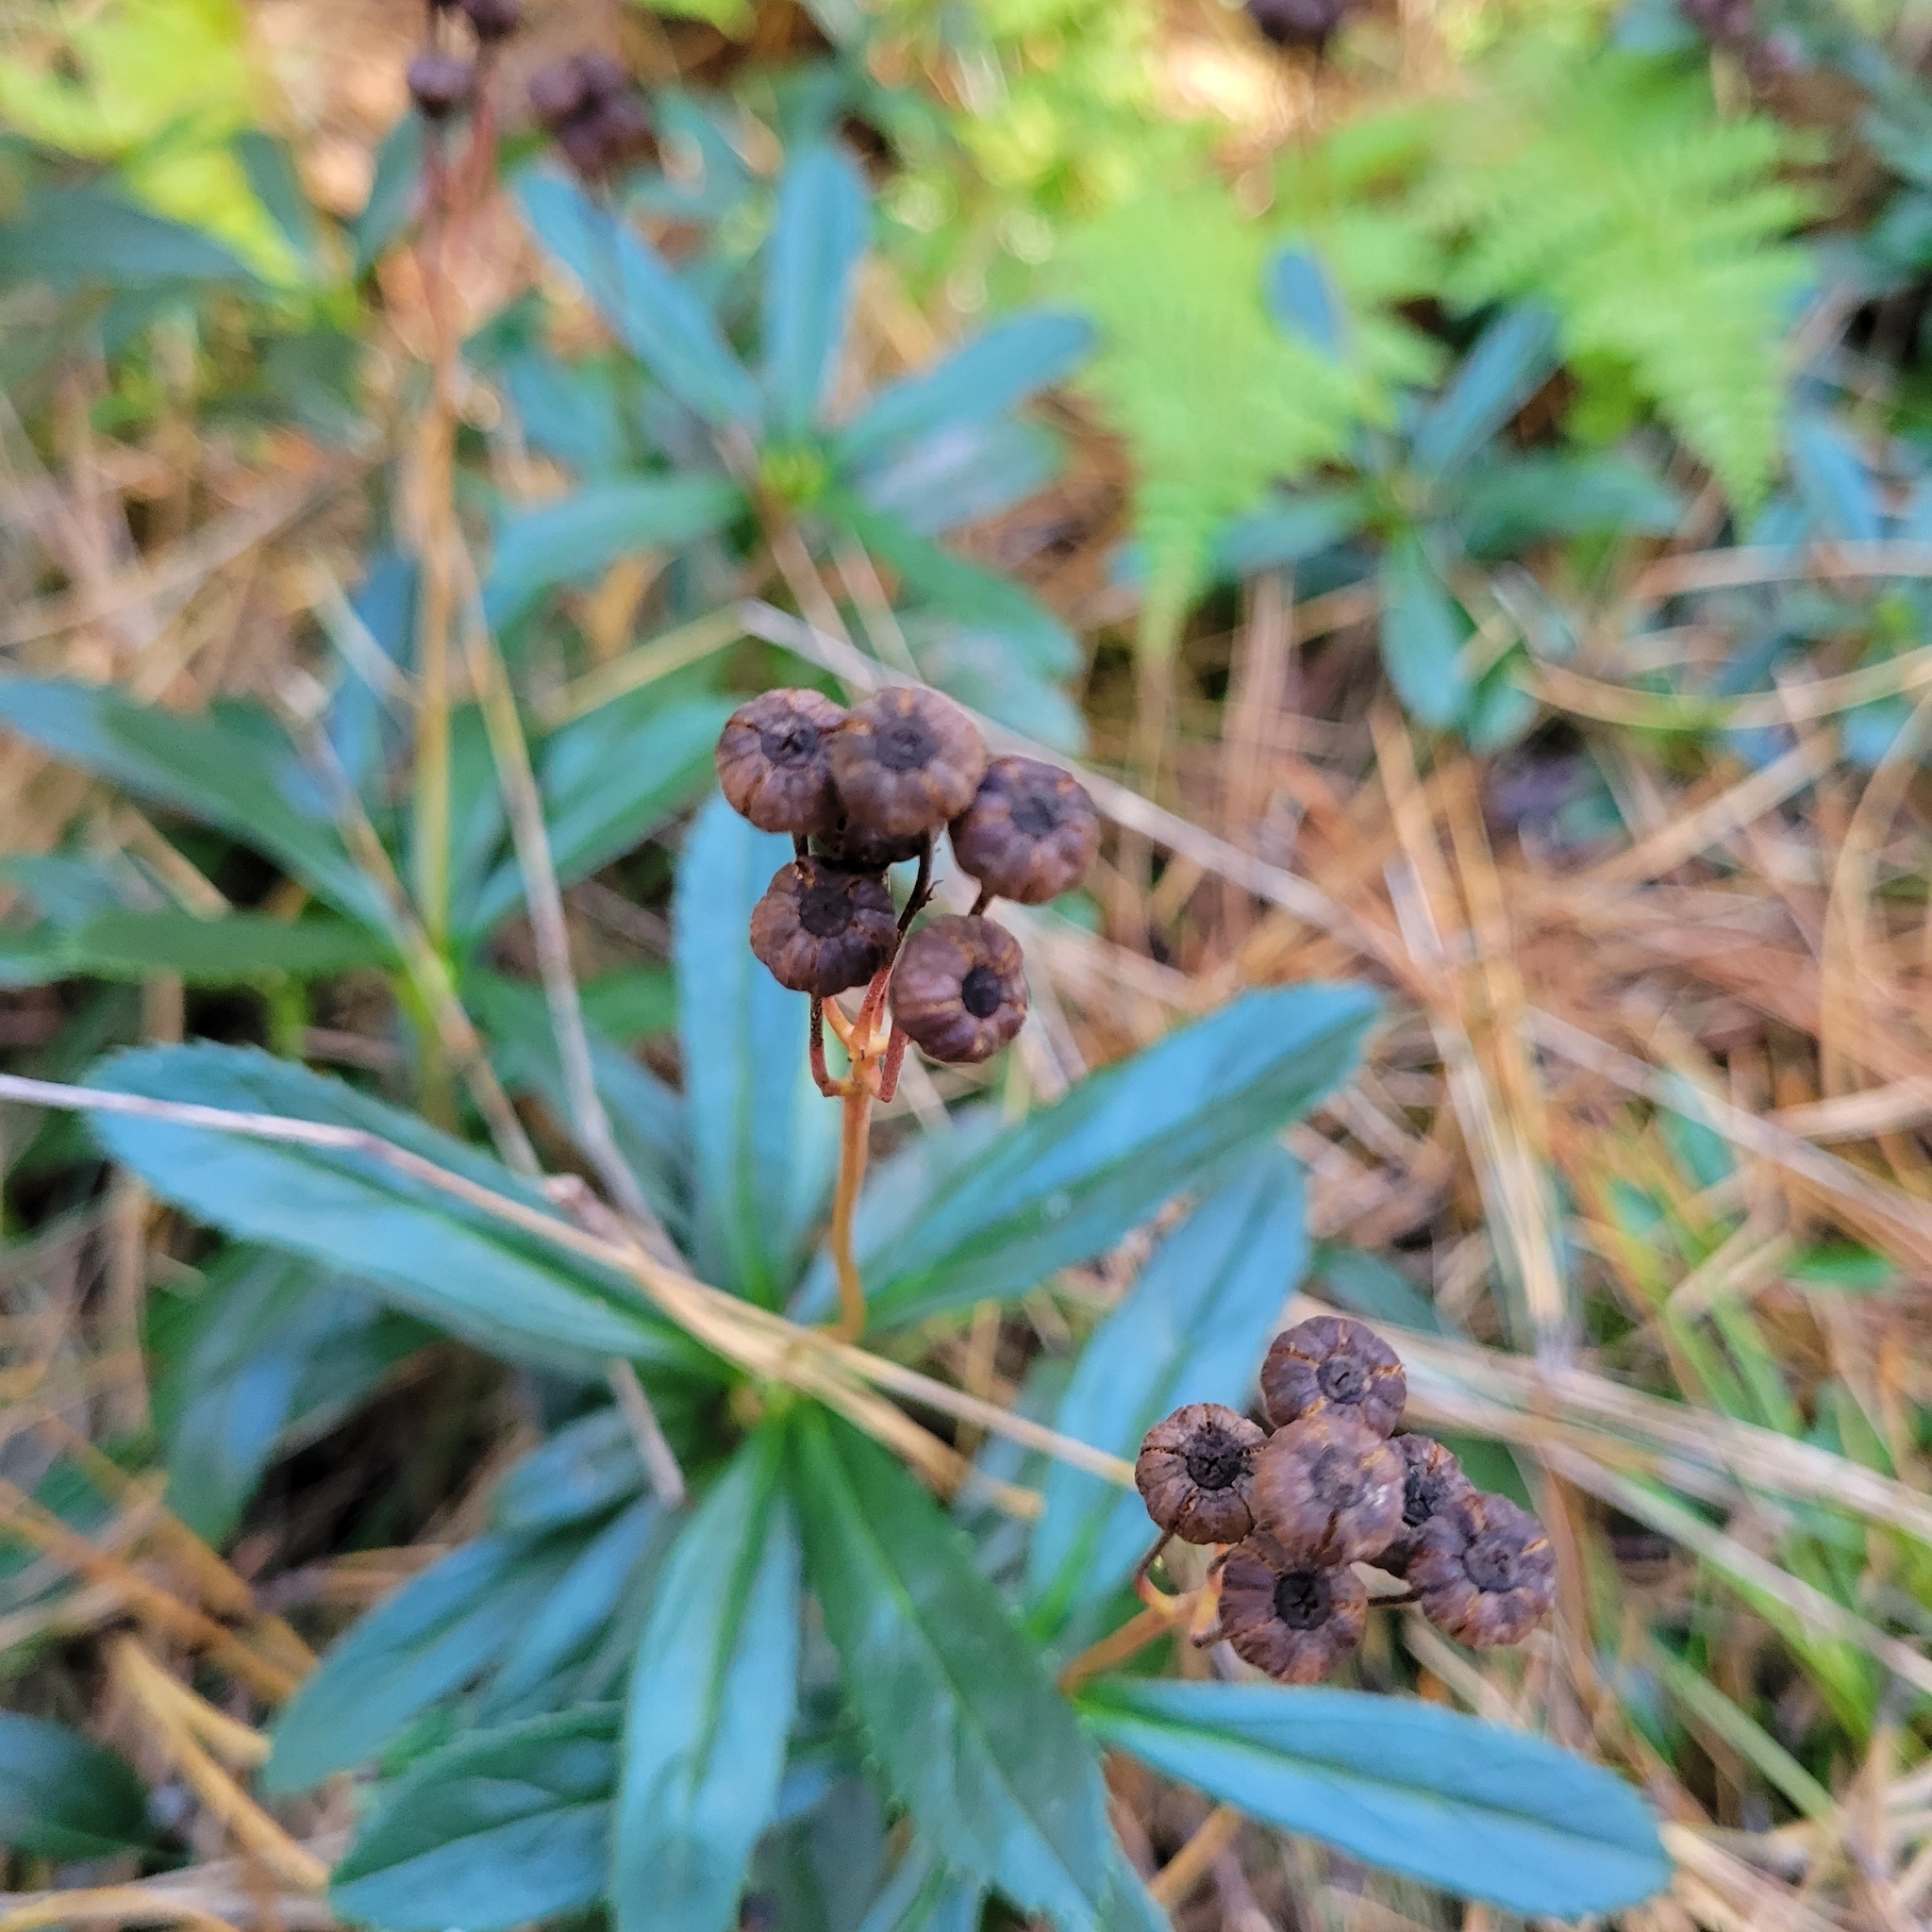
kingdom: Plantae
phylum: Tracheophyta
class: Magnoliopsida
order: Ericales
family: Ericaceae
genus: Chimaphila
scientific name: Chimaphila umbellata
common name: Pipsissewa
